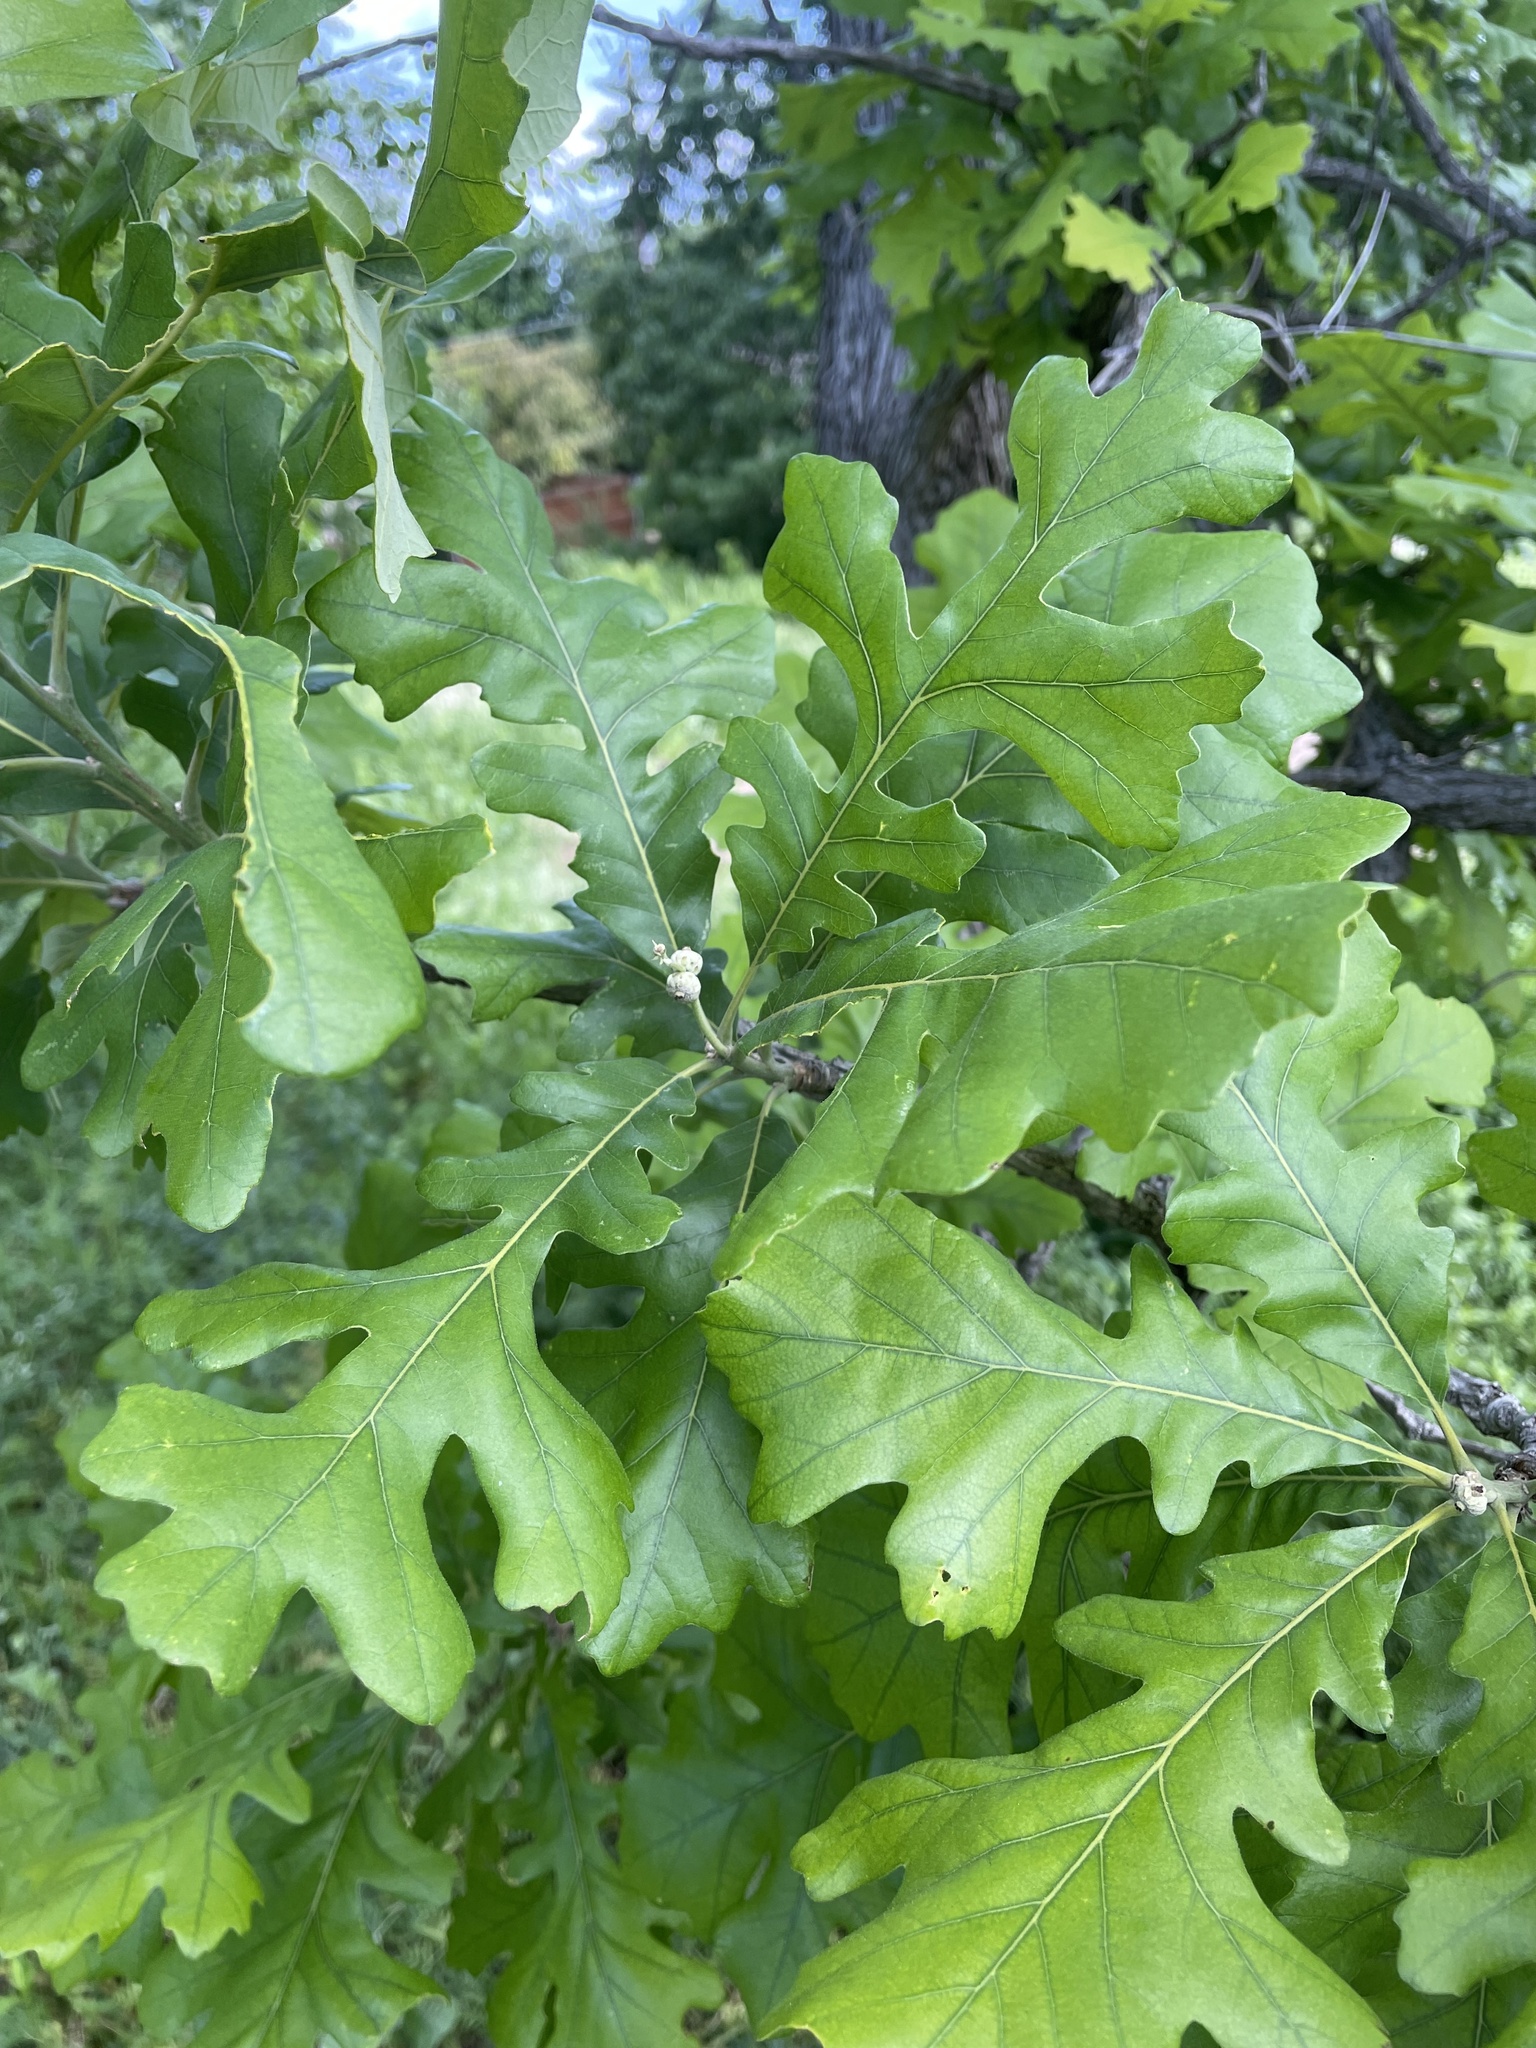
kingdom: Plantae
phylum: Tracheophyta
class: Magnoliopsida
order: Fagales
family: Fagaceae
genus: Quercus
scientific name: Quercus macrocarpa
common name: Bur oak
